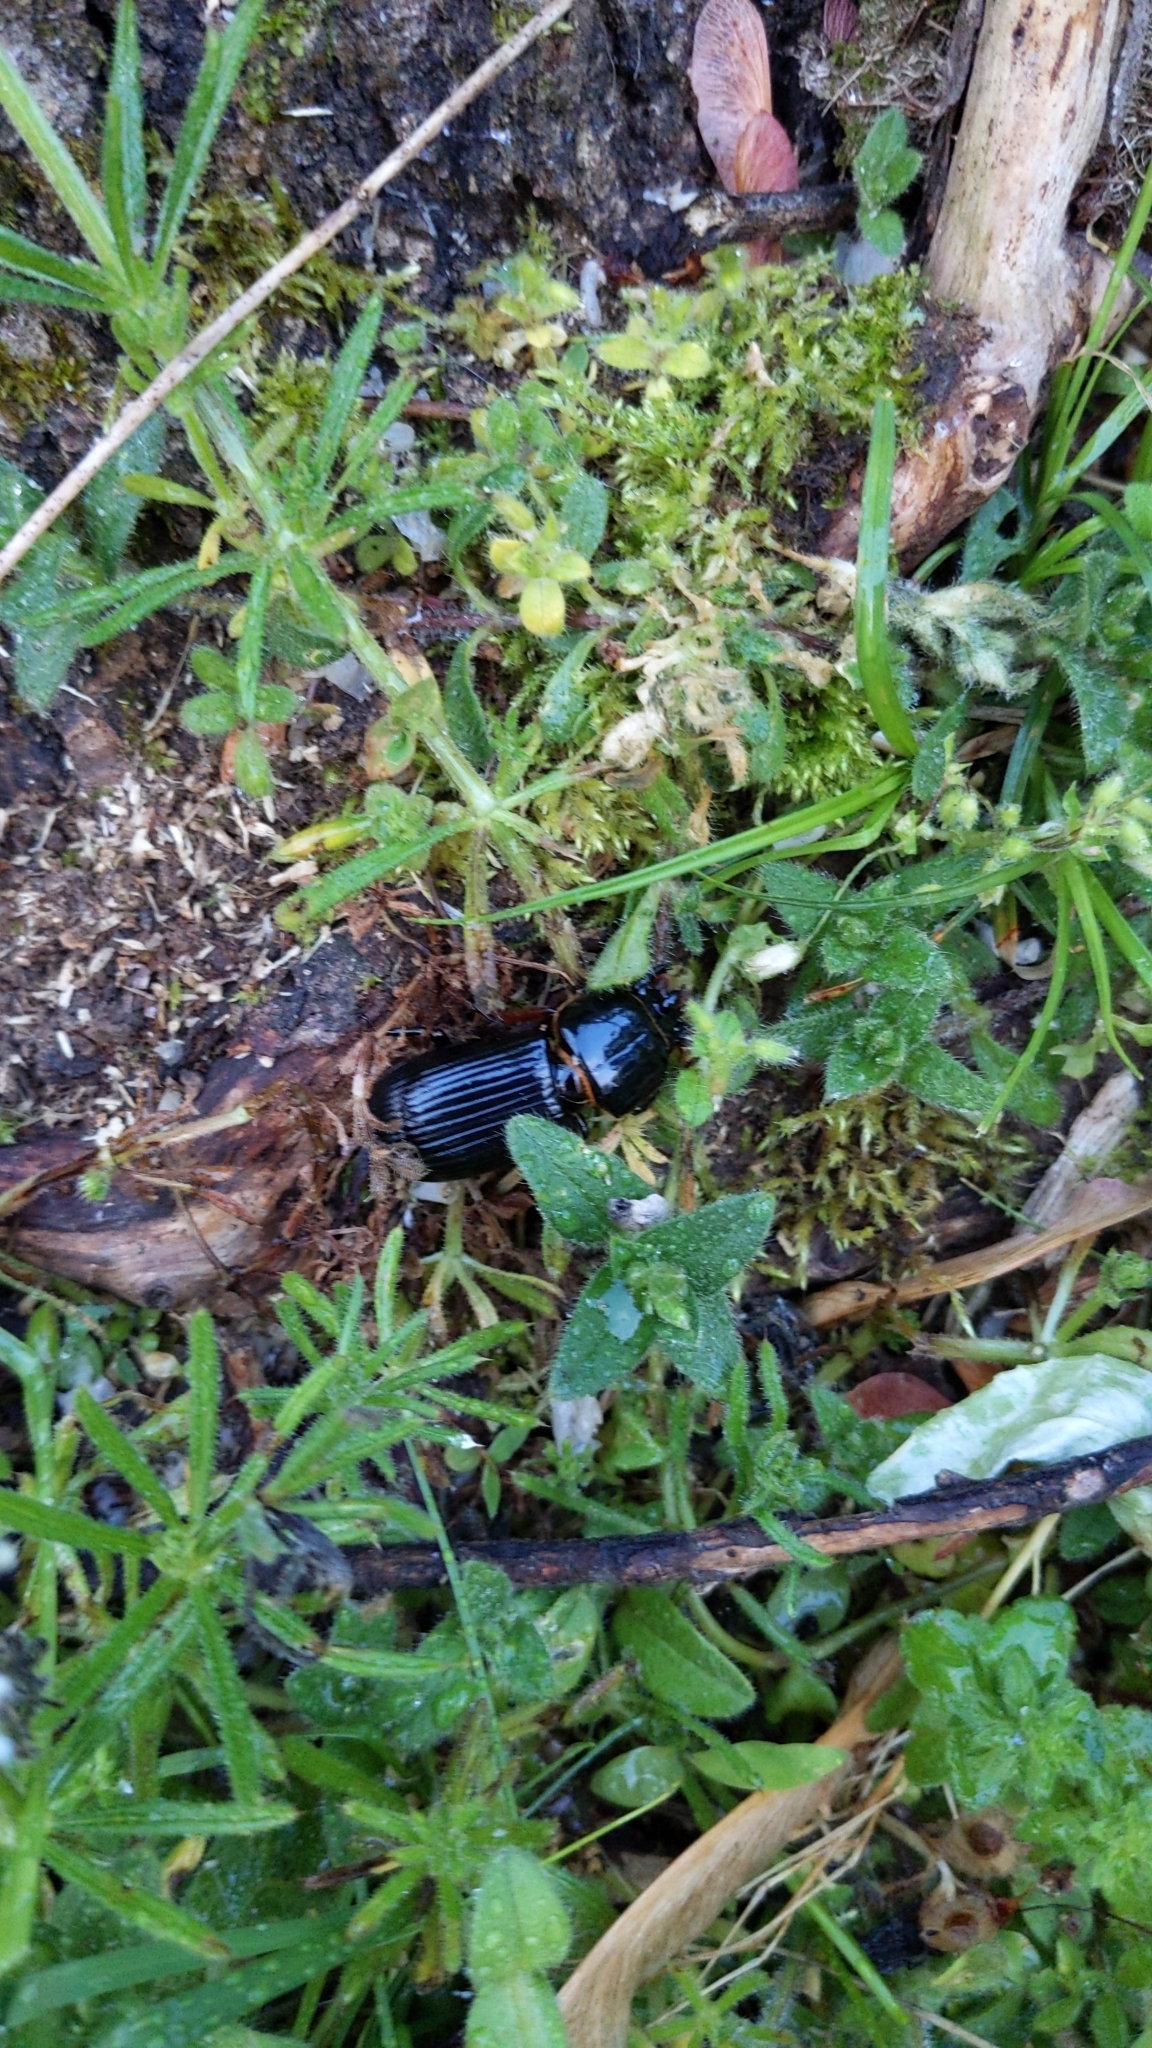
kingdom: Animalia
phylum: Arthropoda
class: Insecta
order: Coleoptera
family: Passalidae
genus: Odontotaenius
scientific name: Odontotaenius disjunctus
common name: Patent leather beetle
